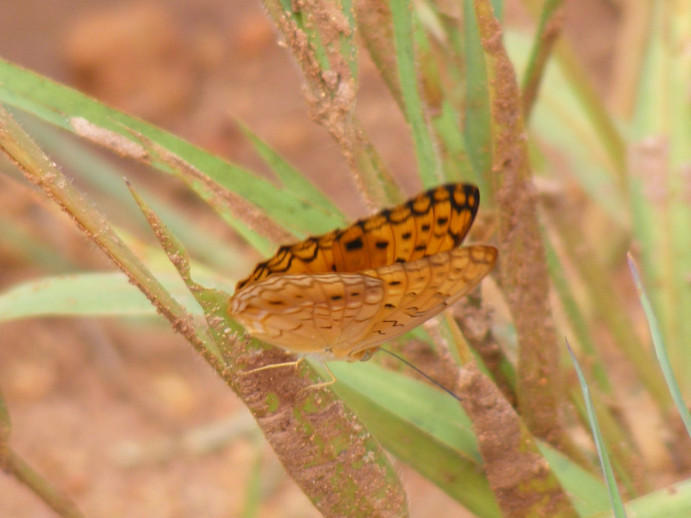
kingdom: Animalia
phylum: Arthropoda
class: Insecta
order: Lepidoptera
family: Nymphalidae
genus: Phalanta
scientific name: Phalanta phalantha
